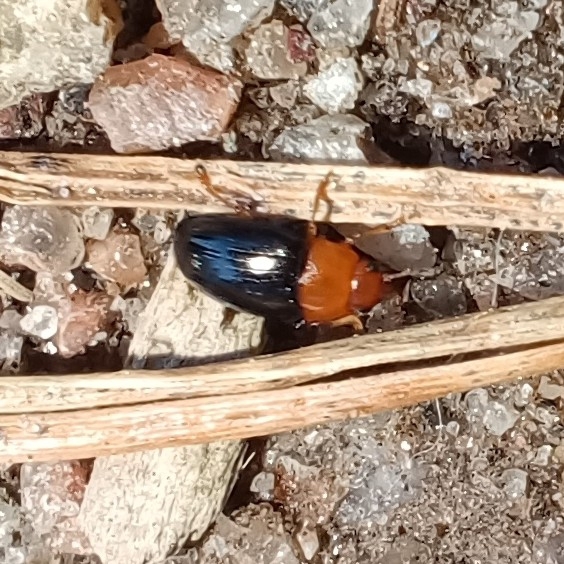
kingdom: Animalia
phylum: Arthropoda
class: Insecta
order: Coleoptera
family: Erotylidae
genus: Triplax
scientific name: Triplax rufipes
